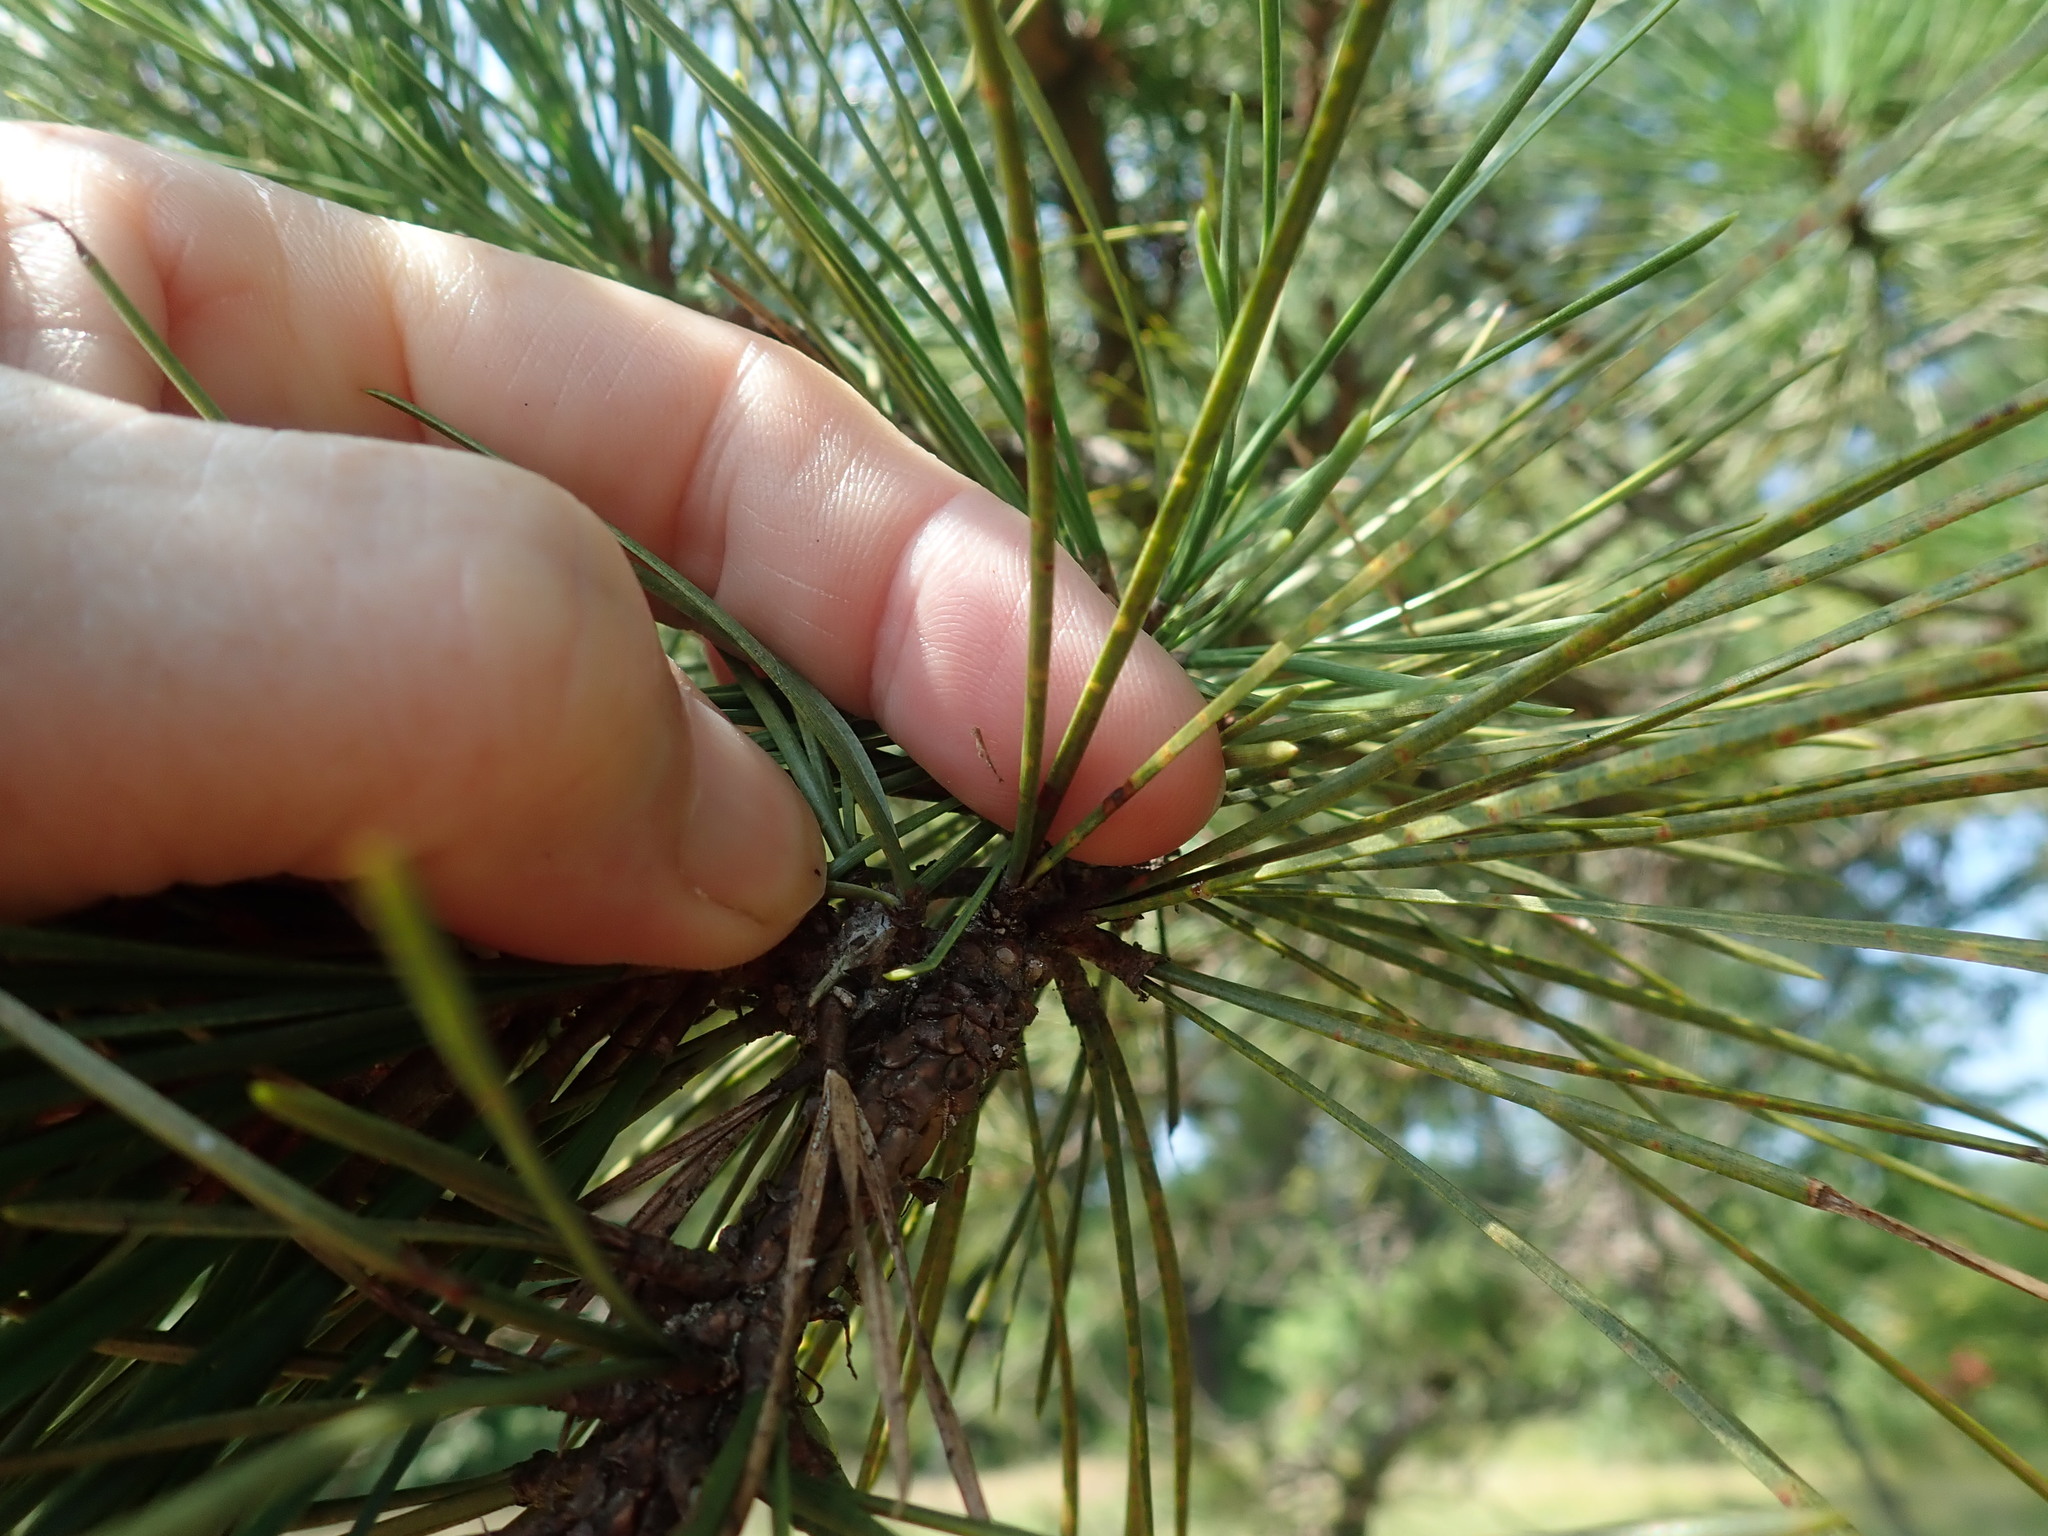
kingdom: Plantae
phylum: Tracheophyta
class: Pinopsida
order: Pinales
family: Pinaceae
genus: Pinus
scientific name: Pinus rigida
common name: Pitch pine
